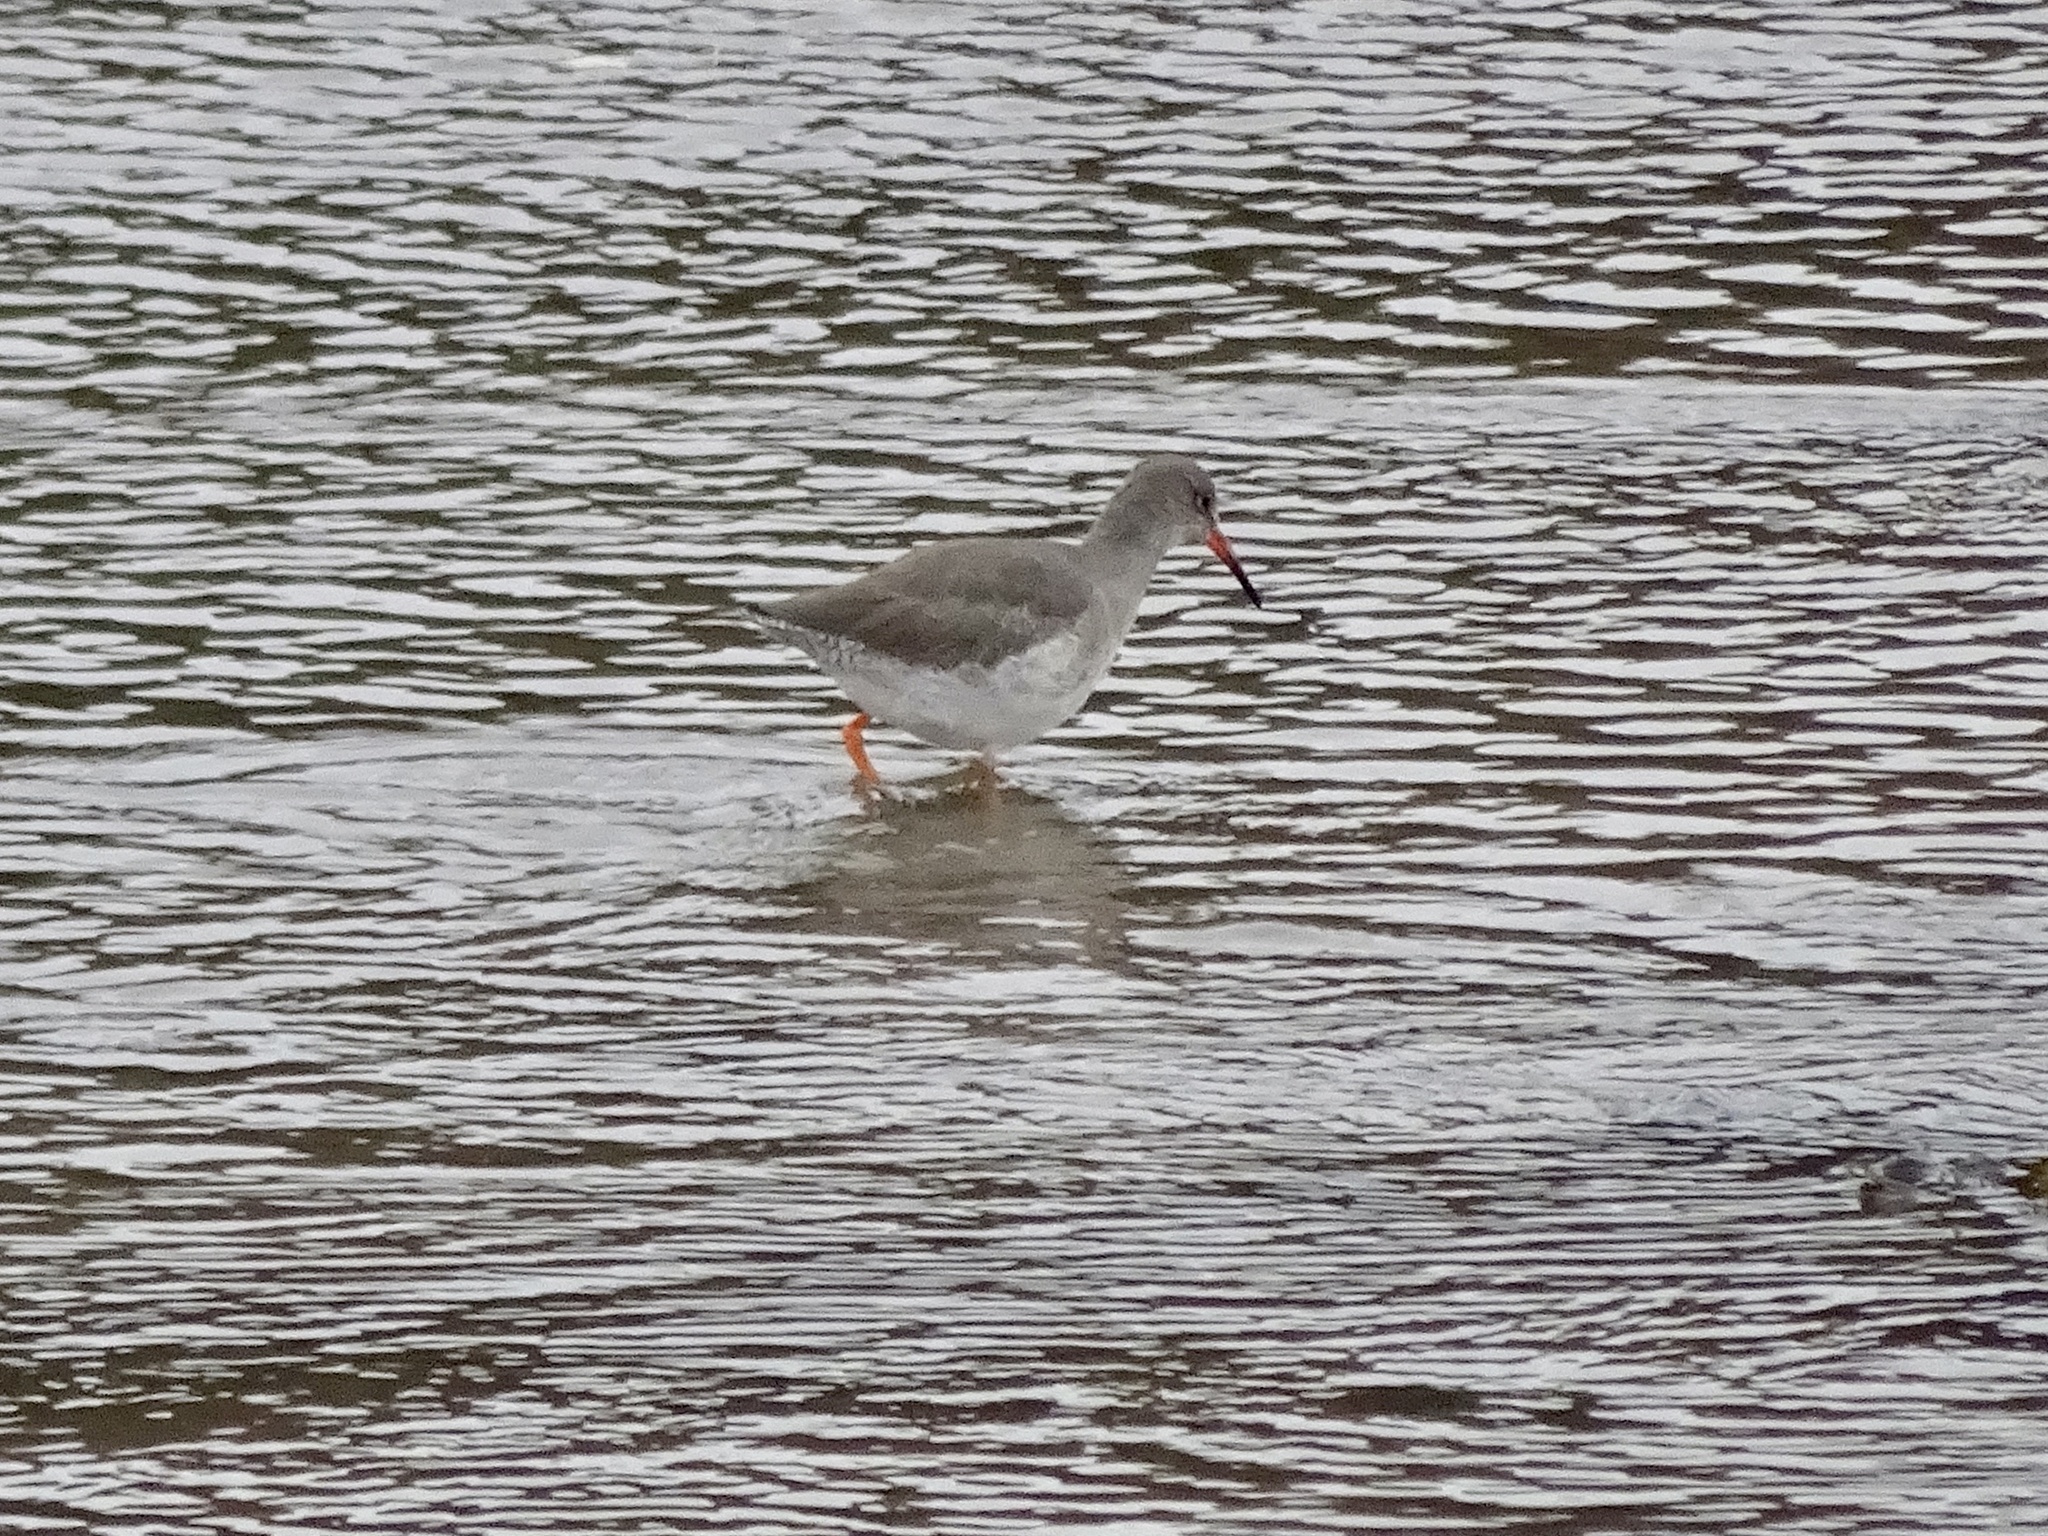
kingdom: Animalia
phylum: Chordata
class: Aves
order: Charadriiformes
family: Scolopacidae
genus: Tringa
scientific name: Tringa totanus
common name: Common redshank
